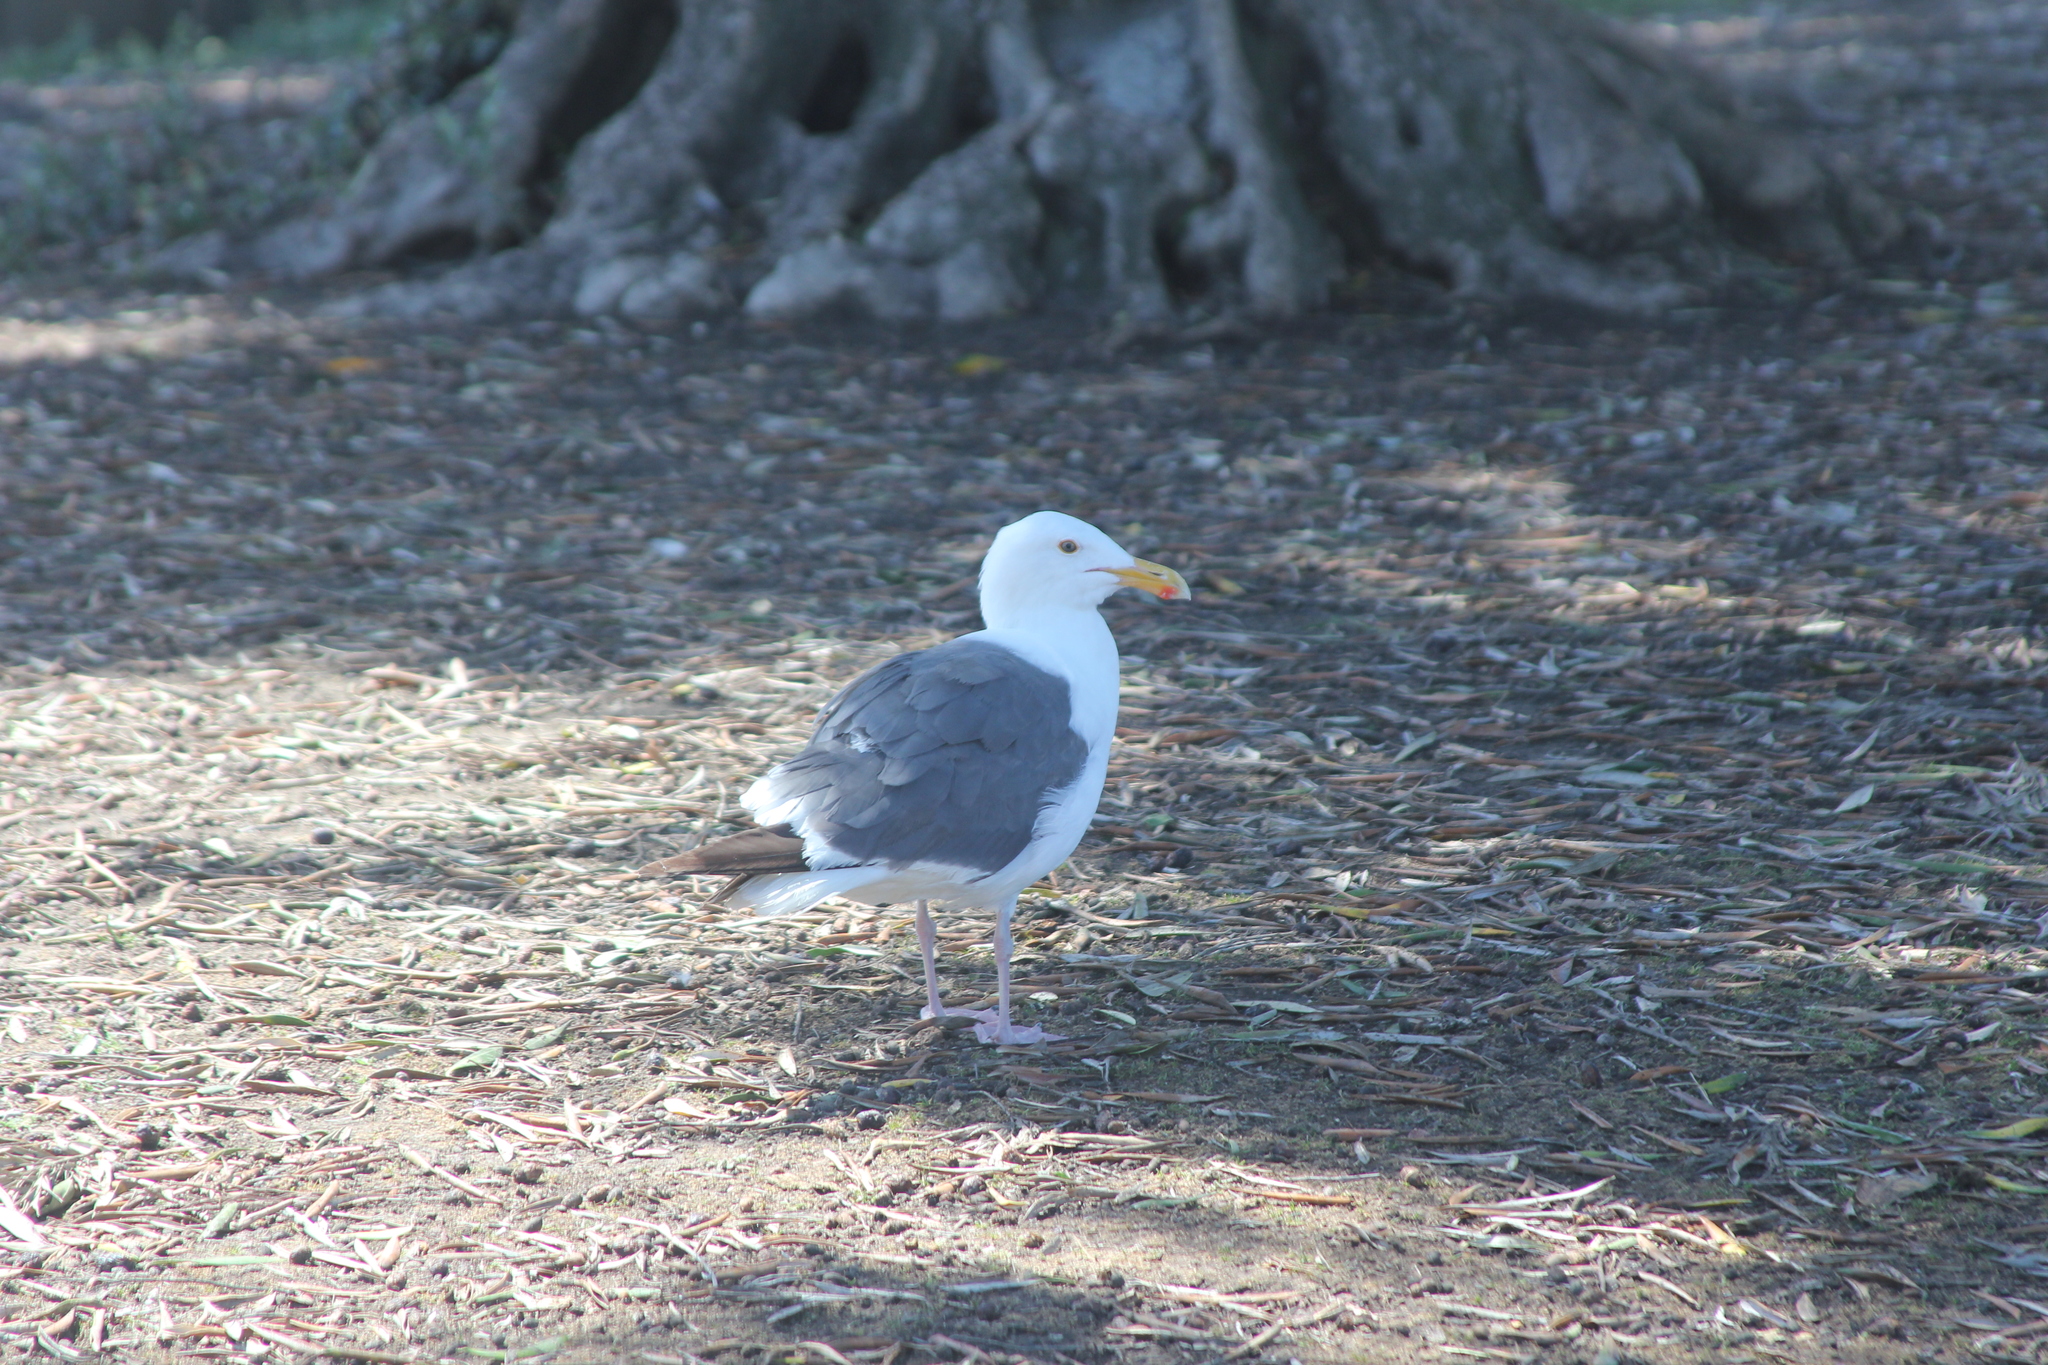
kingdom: Animalia
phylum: Chordata
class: Aves
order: Charadriiformes
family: Laridae
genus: Larus
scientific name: Larus occidentalis
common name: Western gull
